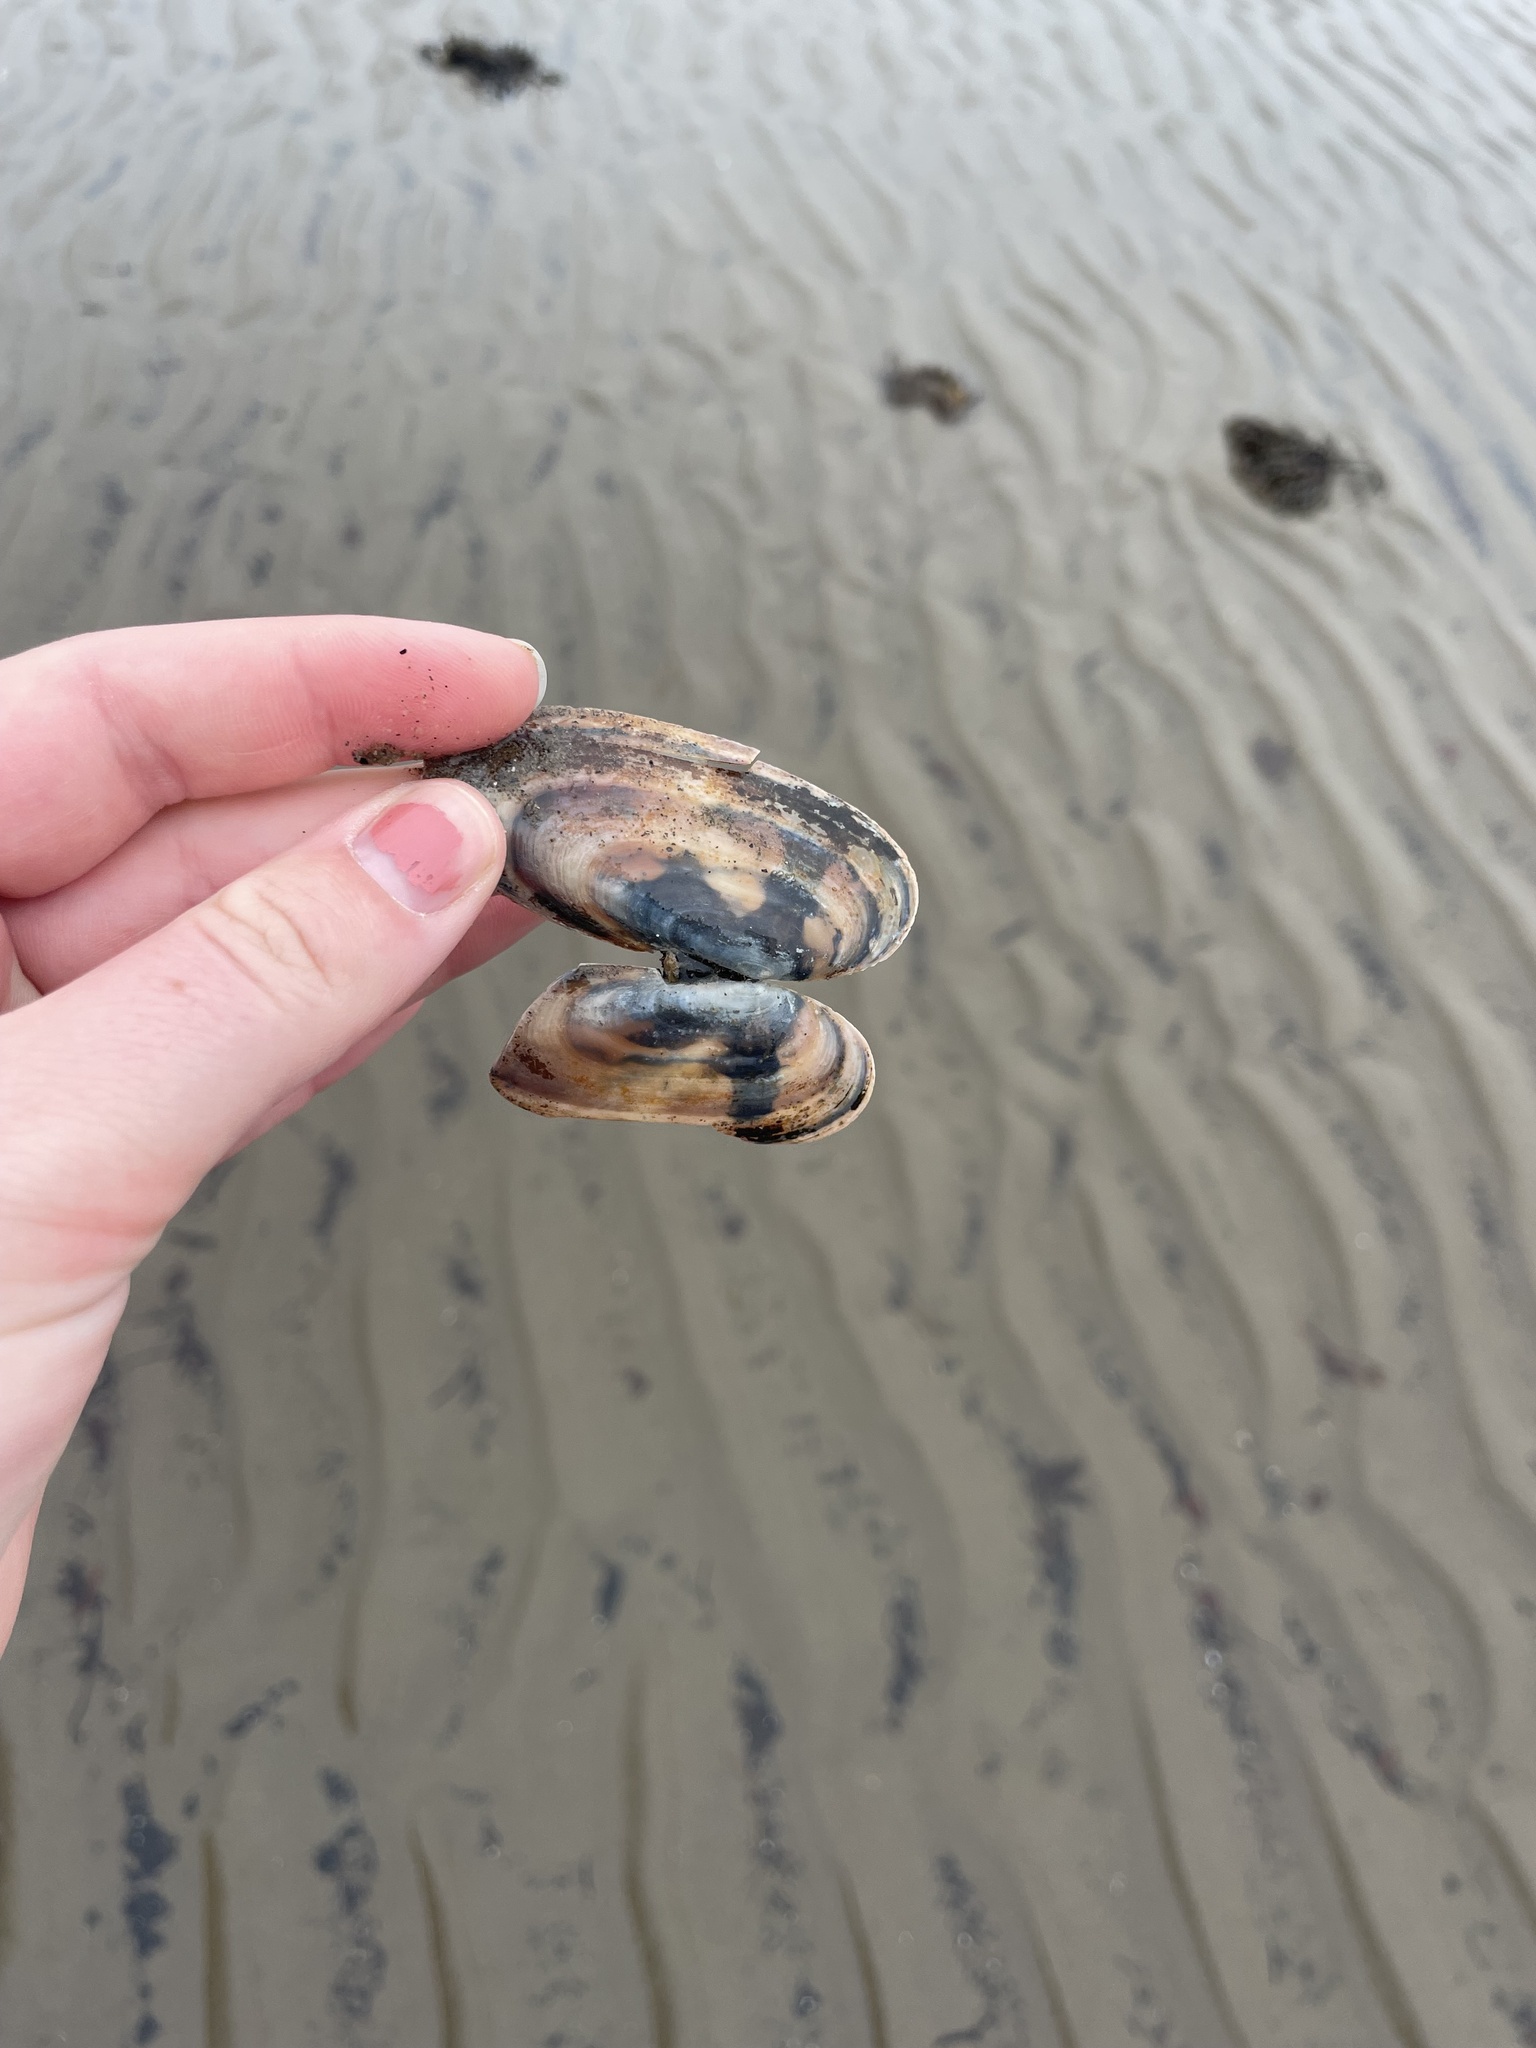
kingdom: Animalia
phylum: Mollusca
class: Bivalvia
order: Adapedonta
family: Pharidae
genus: Siliqua
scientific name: Siliqua costata
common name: Atlantic razor
